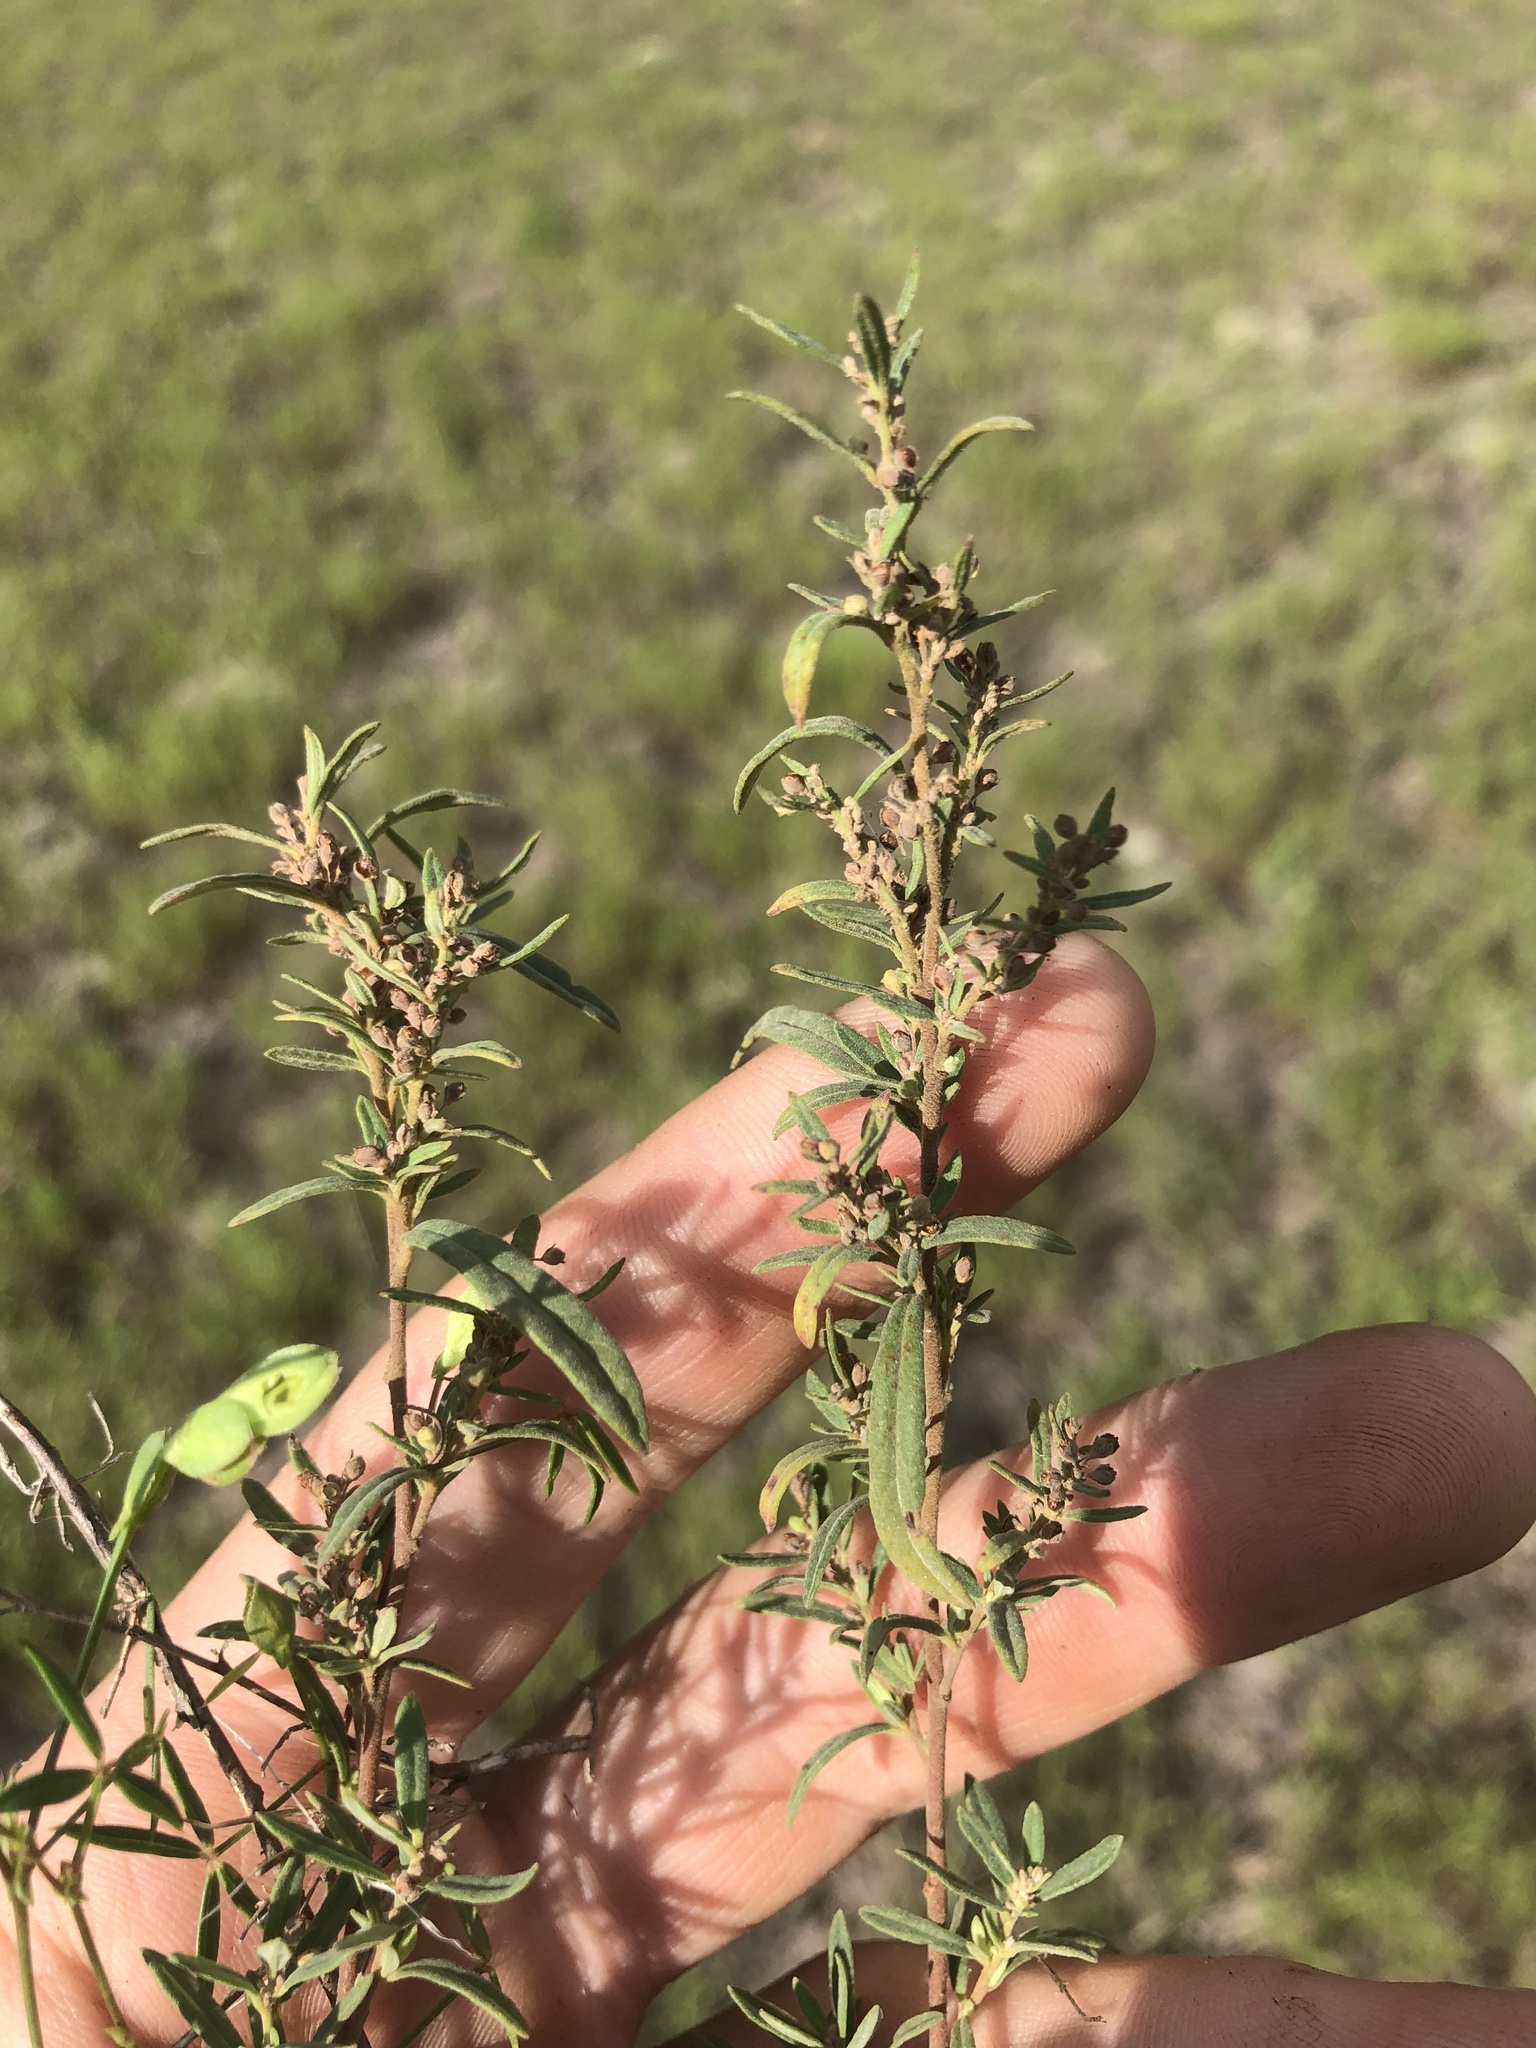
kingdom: Plantae
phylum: Tracheophyta
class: Magnoliopsida
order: Malvales
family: Cistaceae
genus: Crocanthemum
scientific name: Crocanthemum rosmarinifolium
